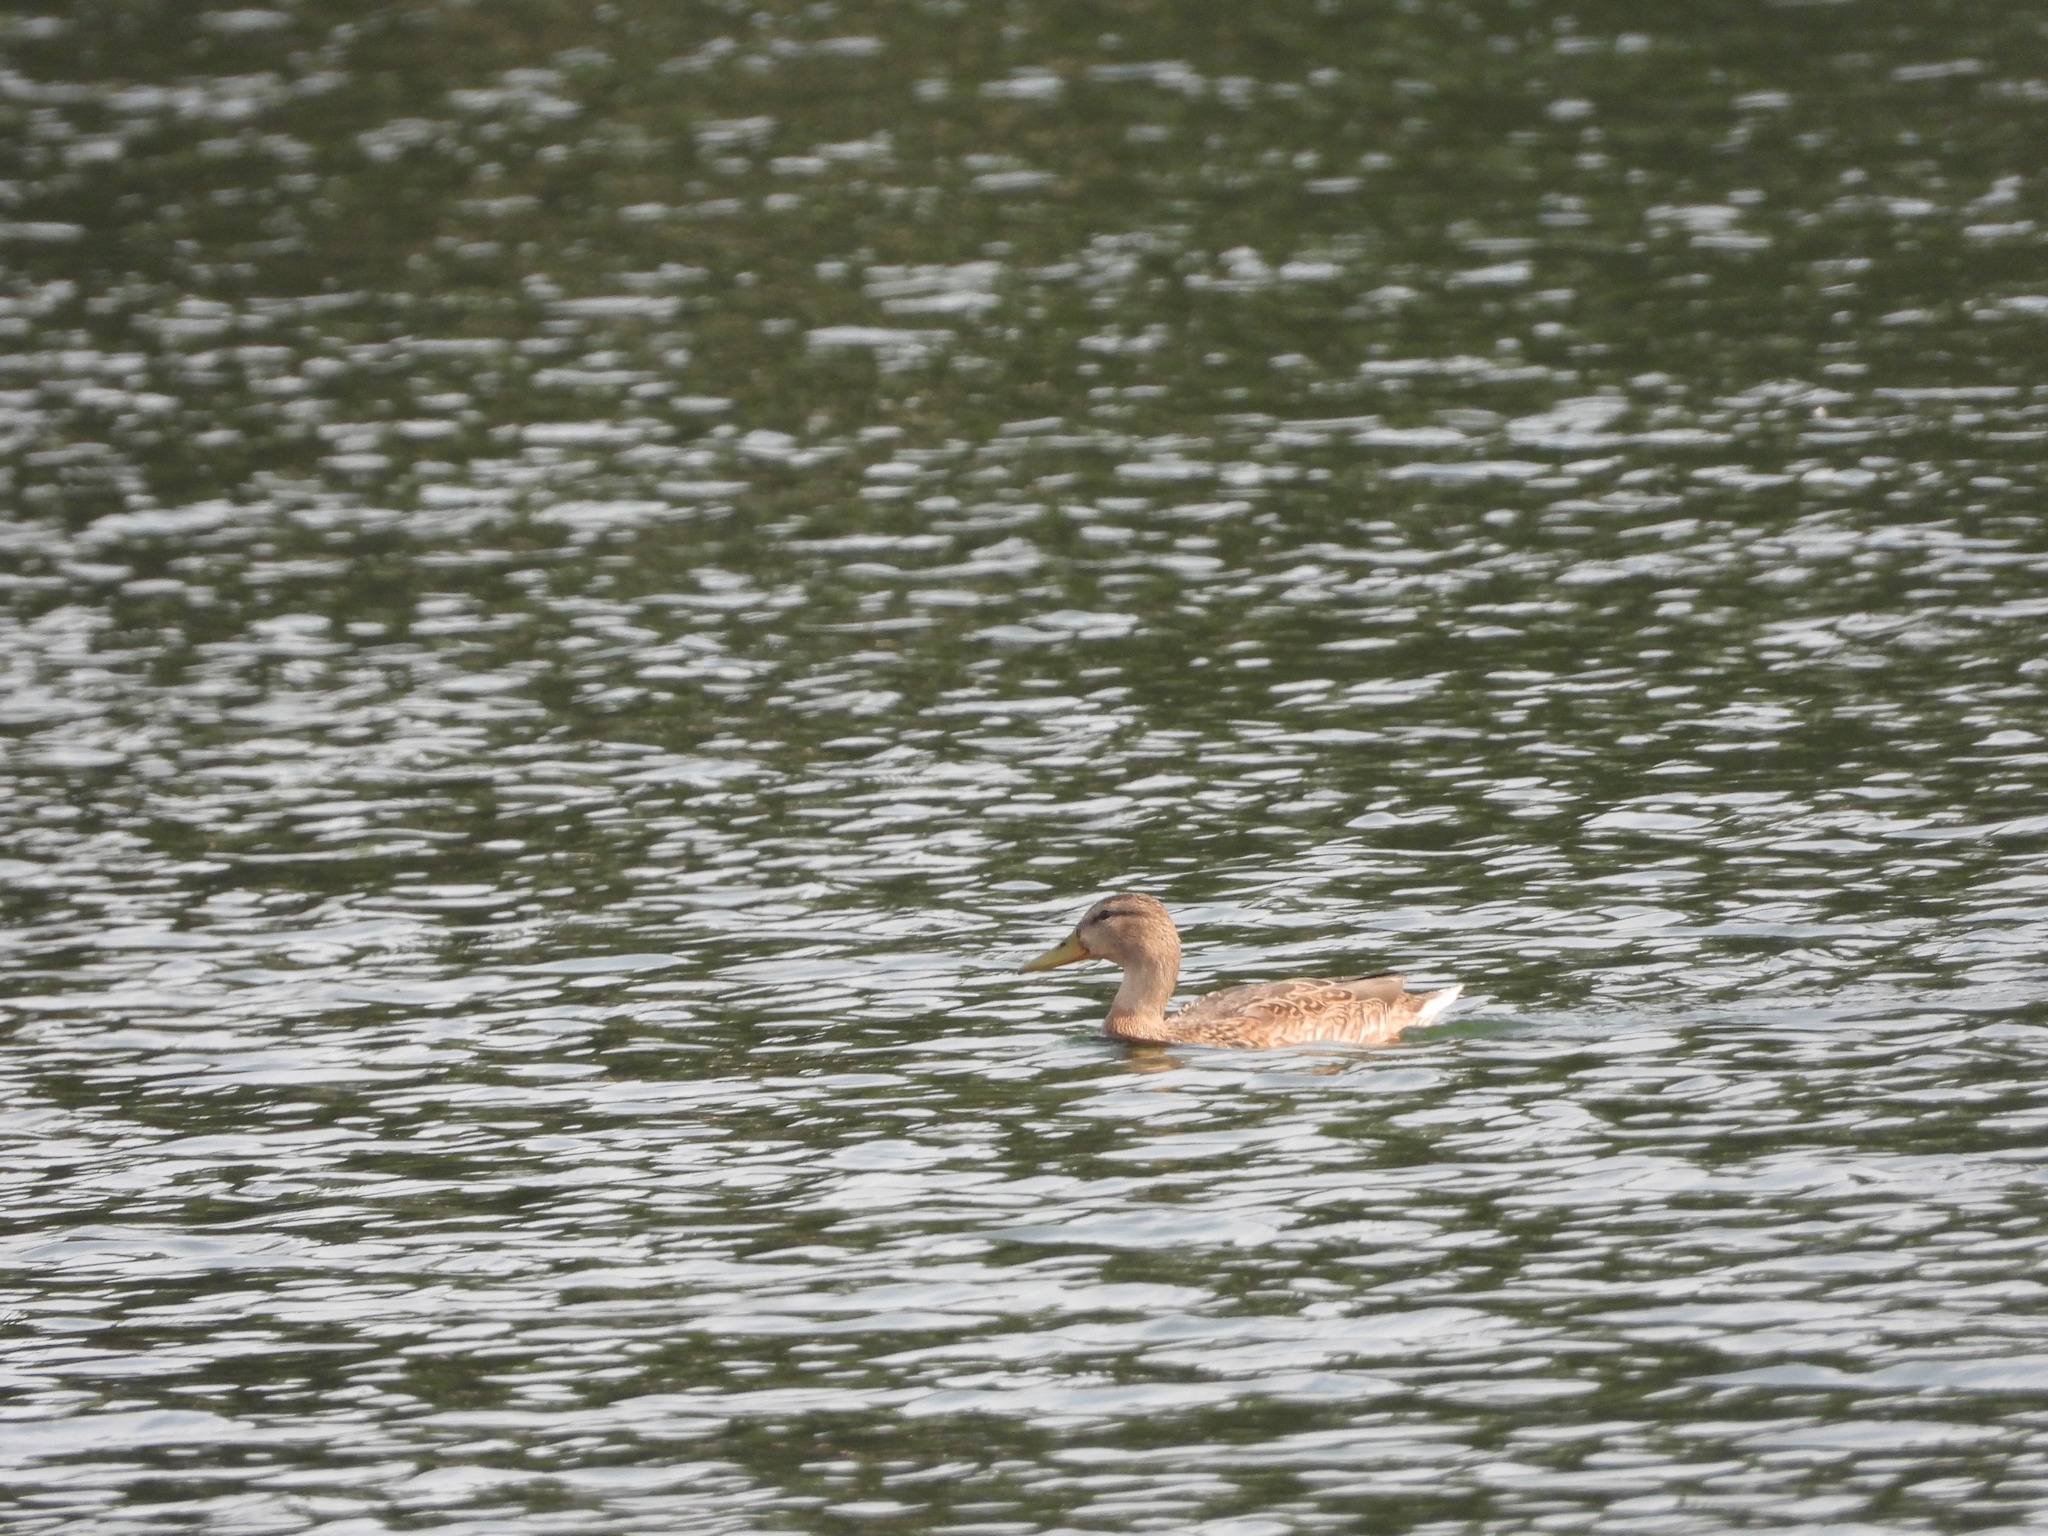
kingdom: Animalia
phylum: Chordata
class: Aves
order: Anseriformes
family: Anatidae
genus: Anas
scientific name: Anas platyrhynchos
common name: Mallard
